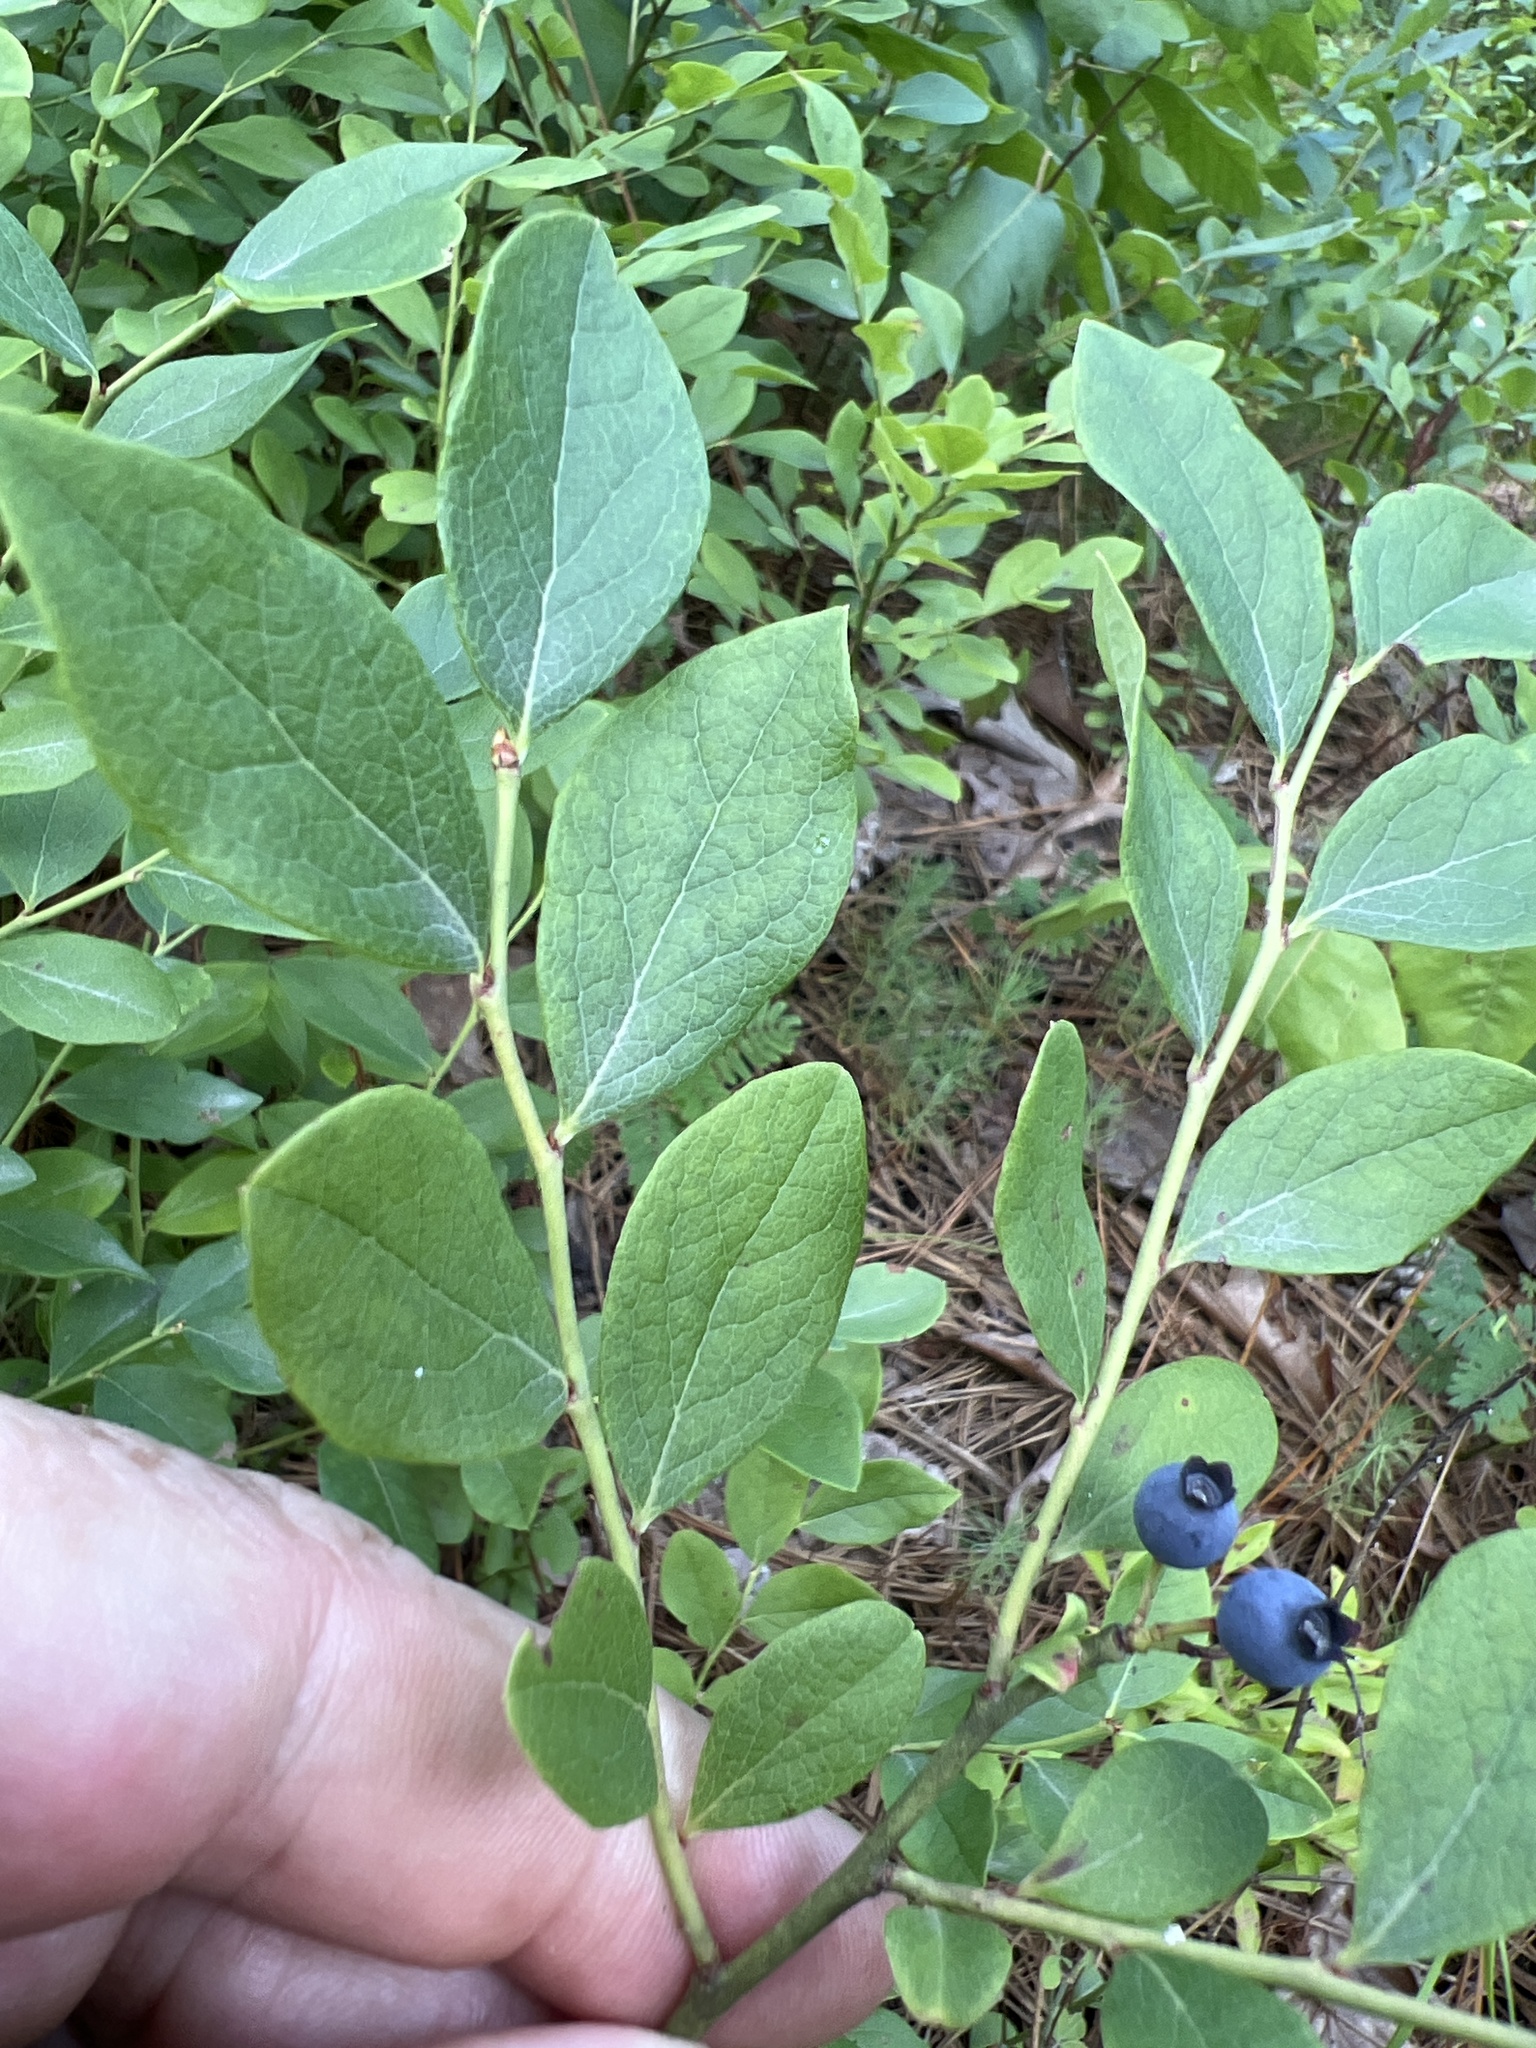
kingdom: Plantae
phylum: Tracheophyta
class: Magnoliopsida
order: Ericales
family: Ericaceae
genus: Vaccinium
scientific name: Vaccinium pallidum
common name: Blue ridge blueberry
